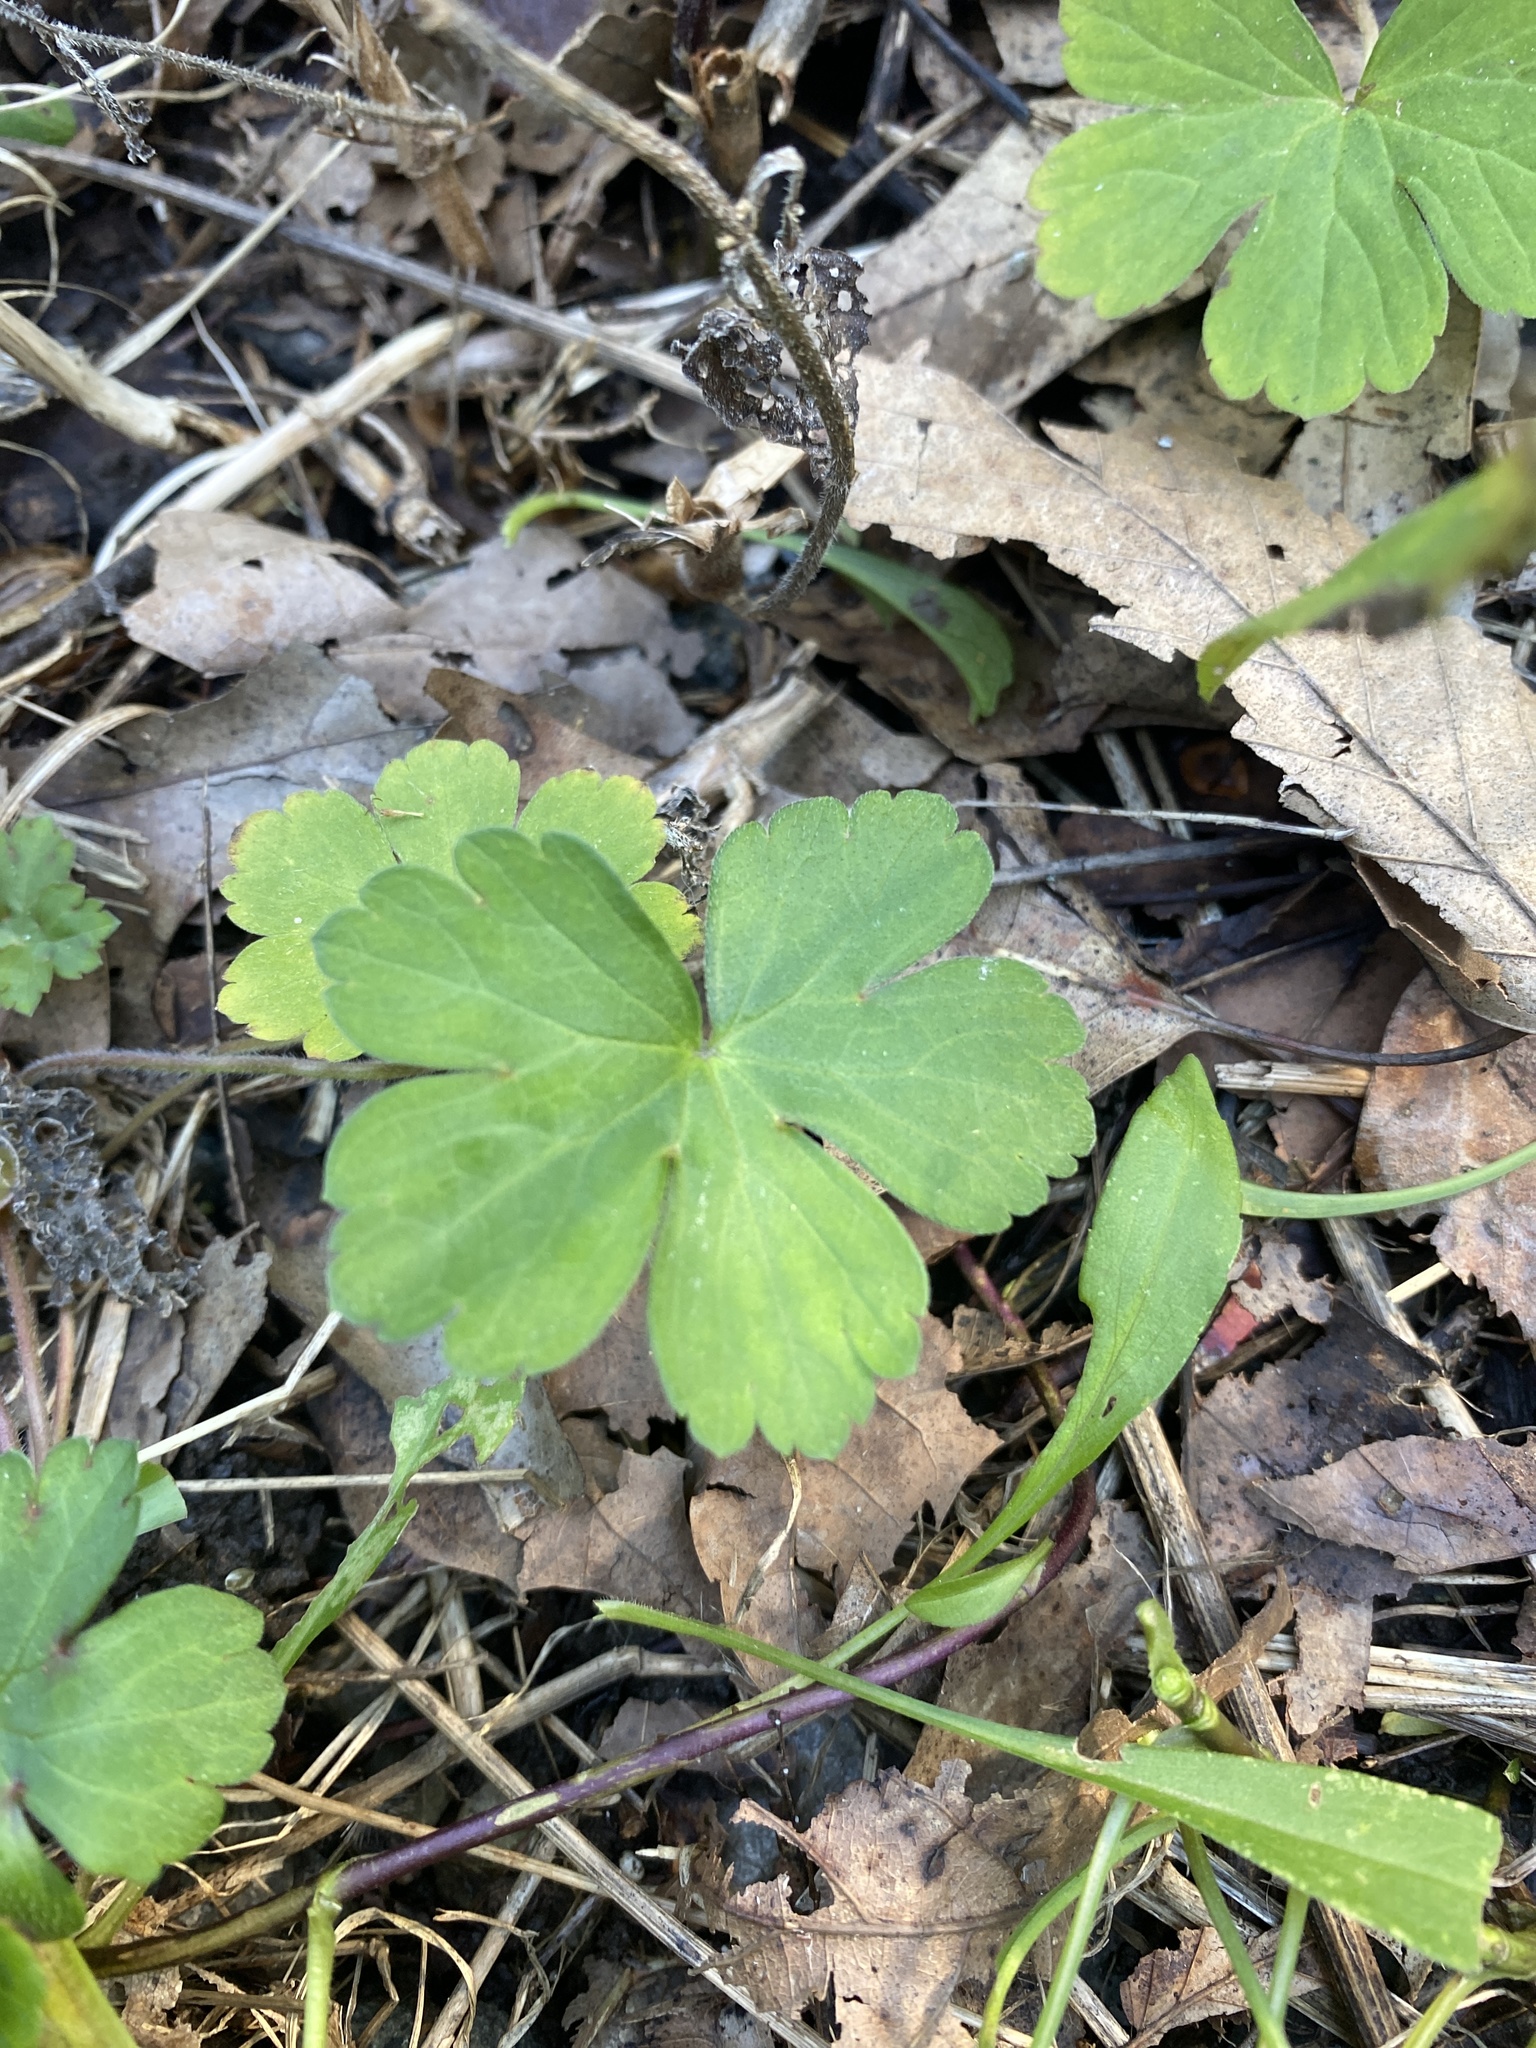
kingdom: Plantae
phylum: Tracheophyta
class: Magnoliopsida
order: Geraniales
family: Geraniaceae
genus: Geranium
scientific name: Geranium thunbergii
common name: Dewdrop crane's-bill
